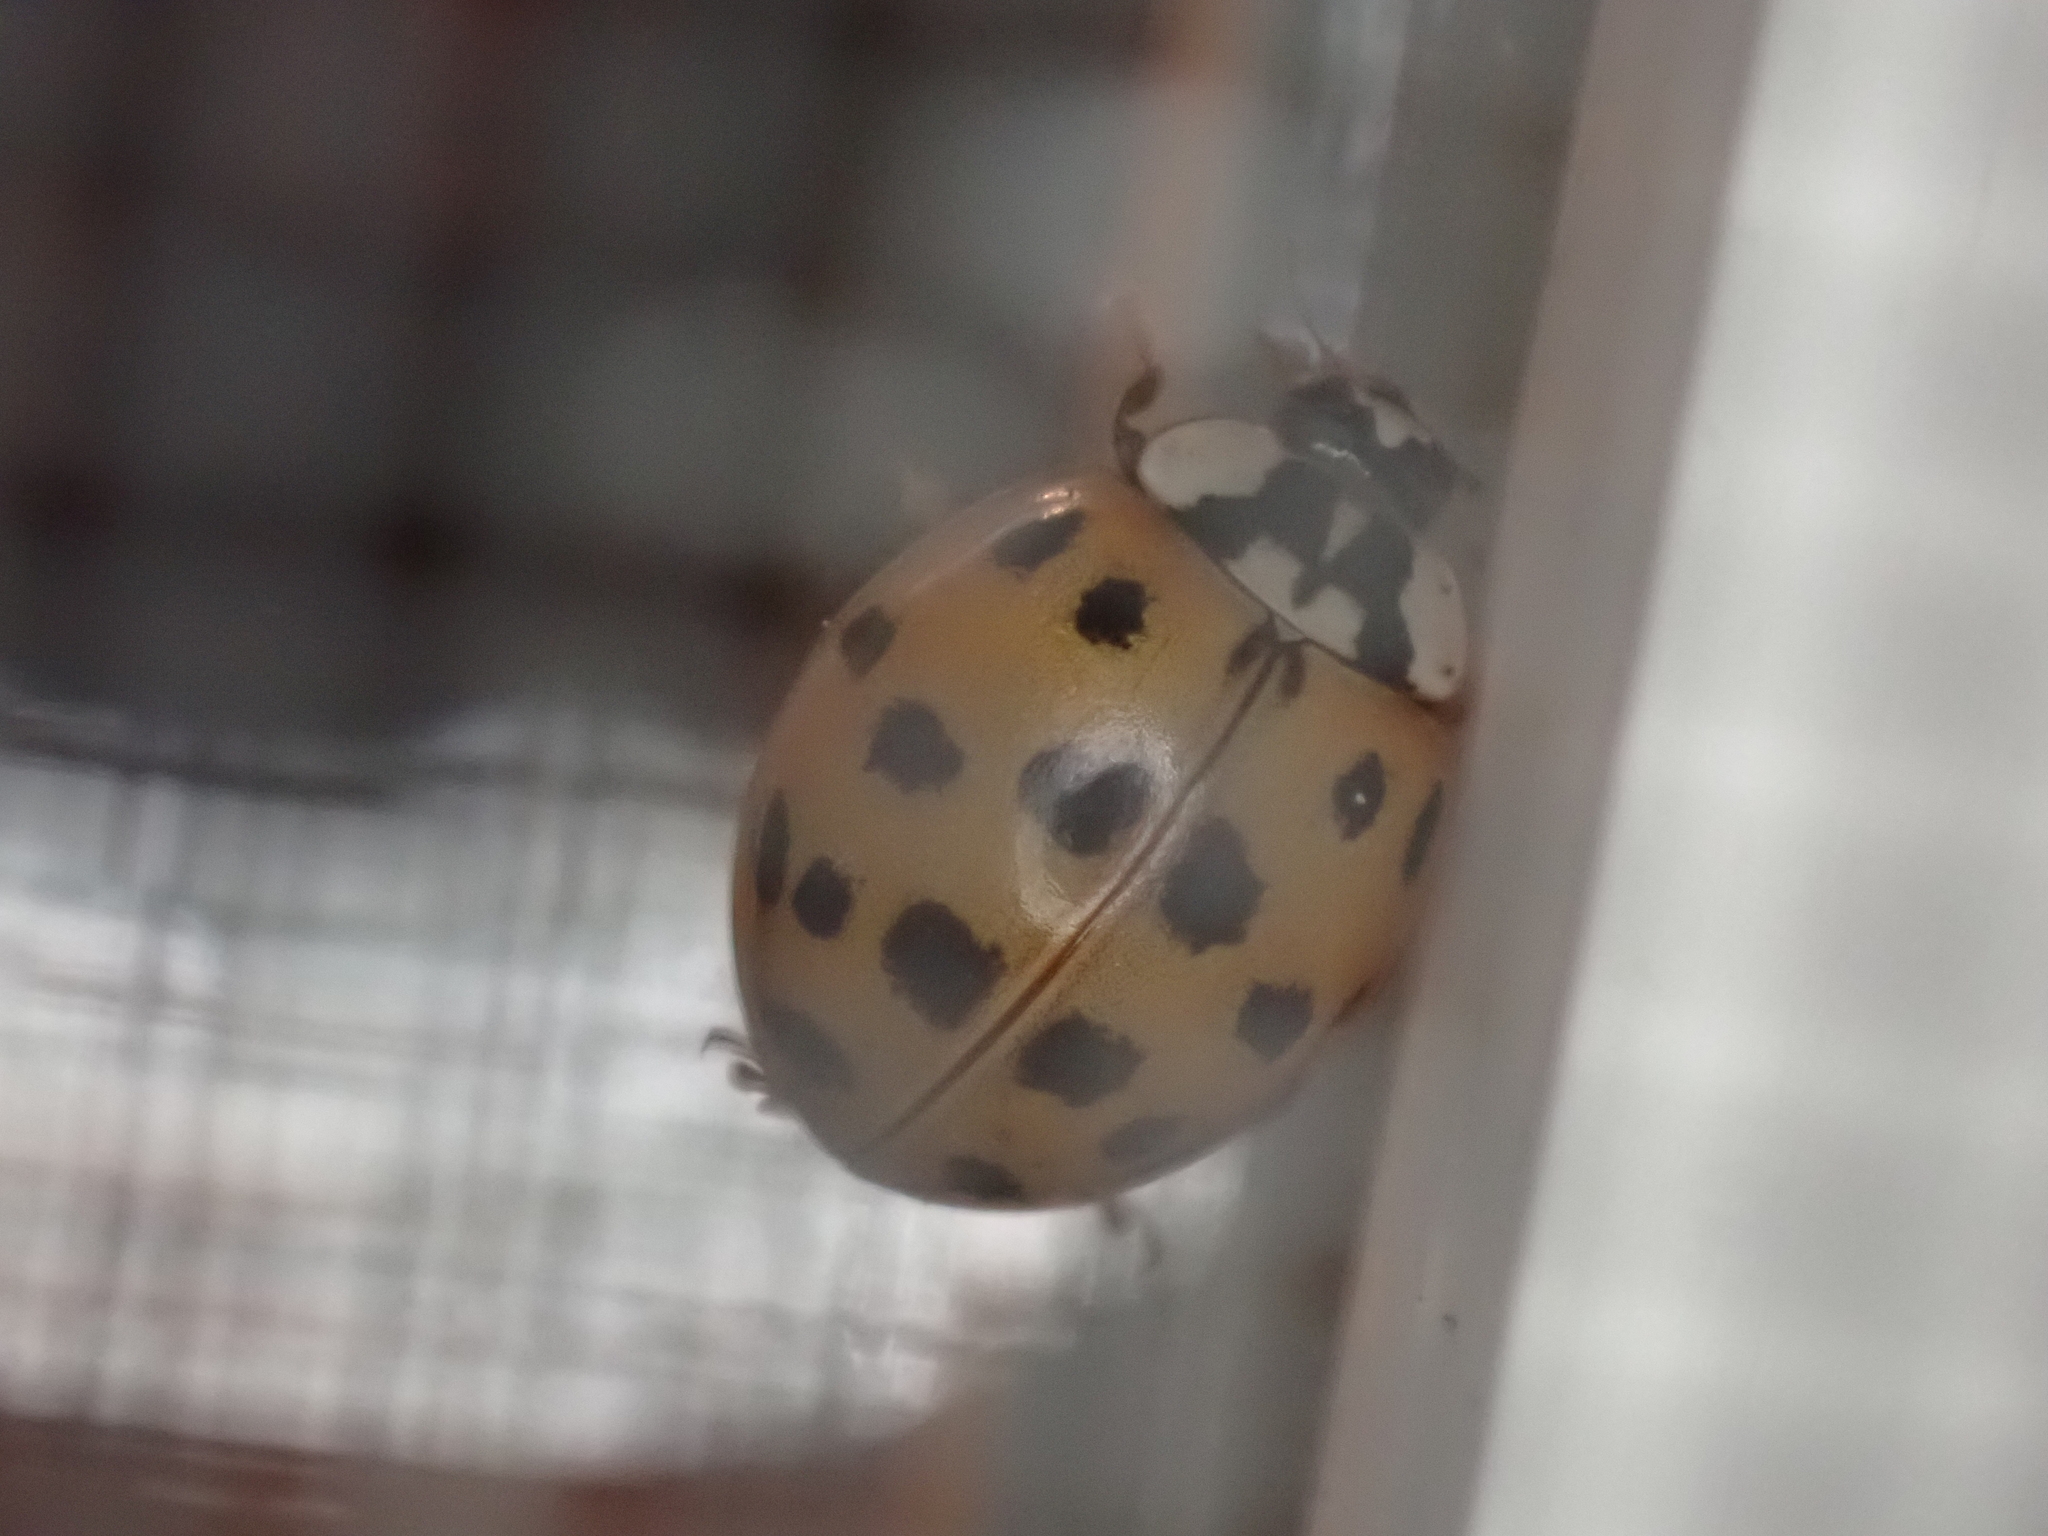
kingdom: Animalia
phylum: Arthropoda
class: Insecta
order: Coleoptera
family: Coccinellidae
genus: Harmonia
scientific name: Harmonia axyridis
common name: Harlequin ladybird
